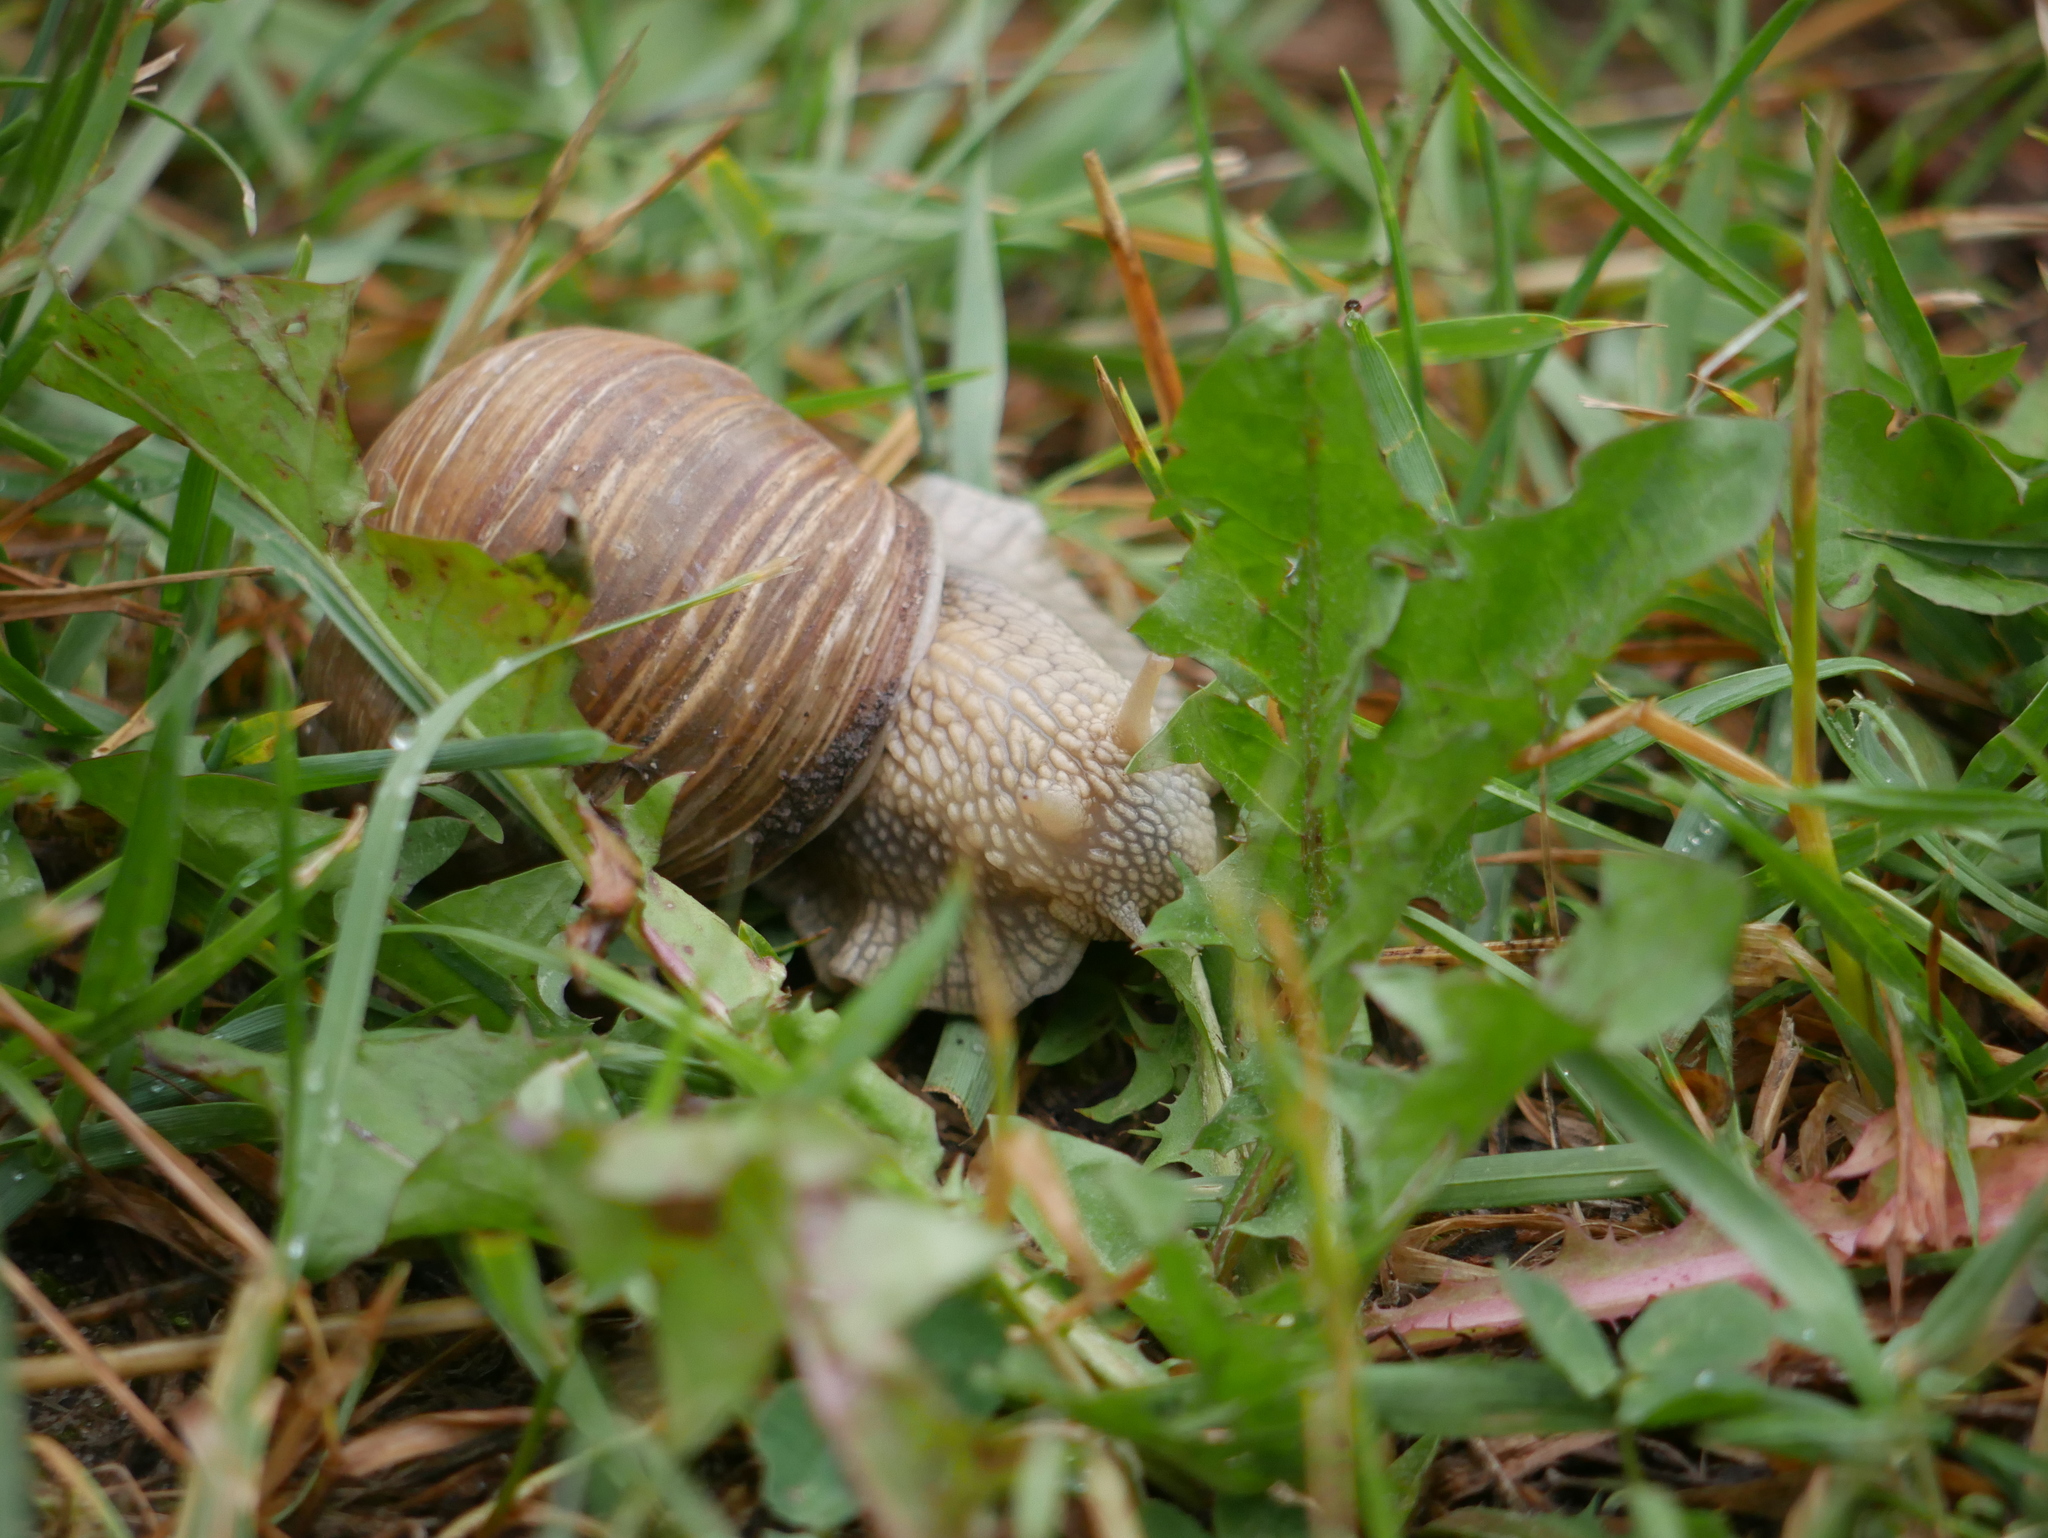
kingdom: Animalia
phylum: Mollusca
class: Gastropoda
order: Stylommatophora
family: Helicidae
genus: Helix
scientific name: Helix pomatia
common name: Roman snail
